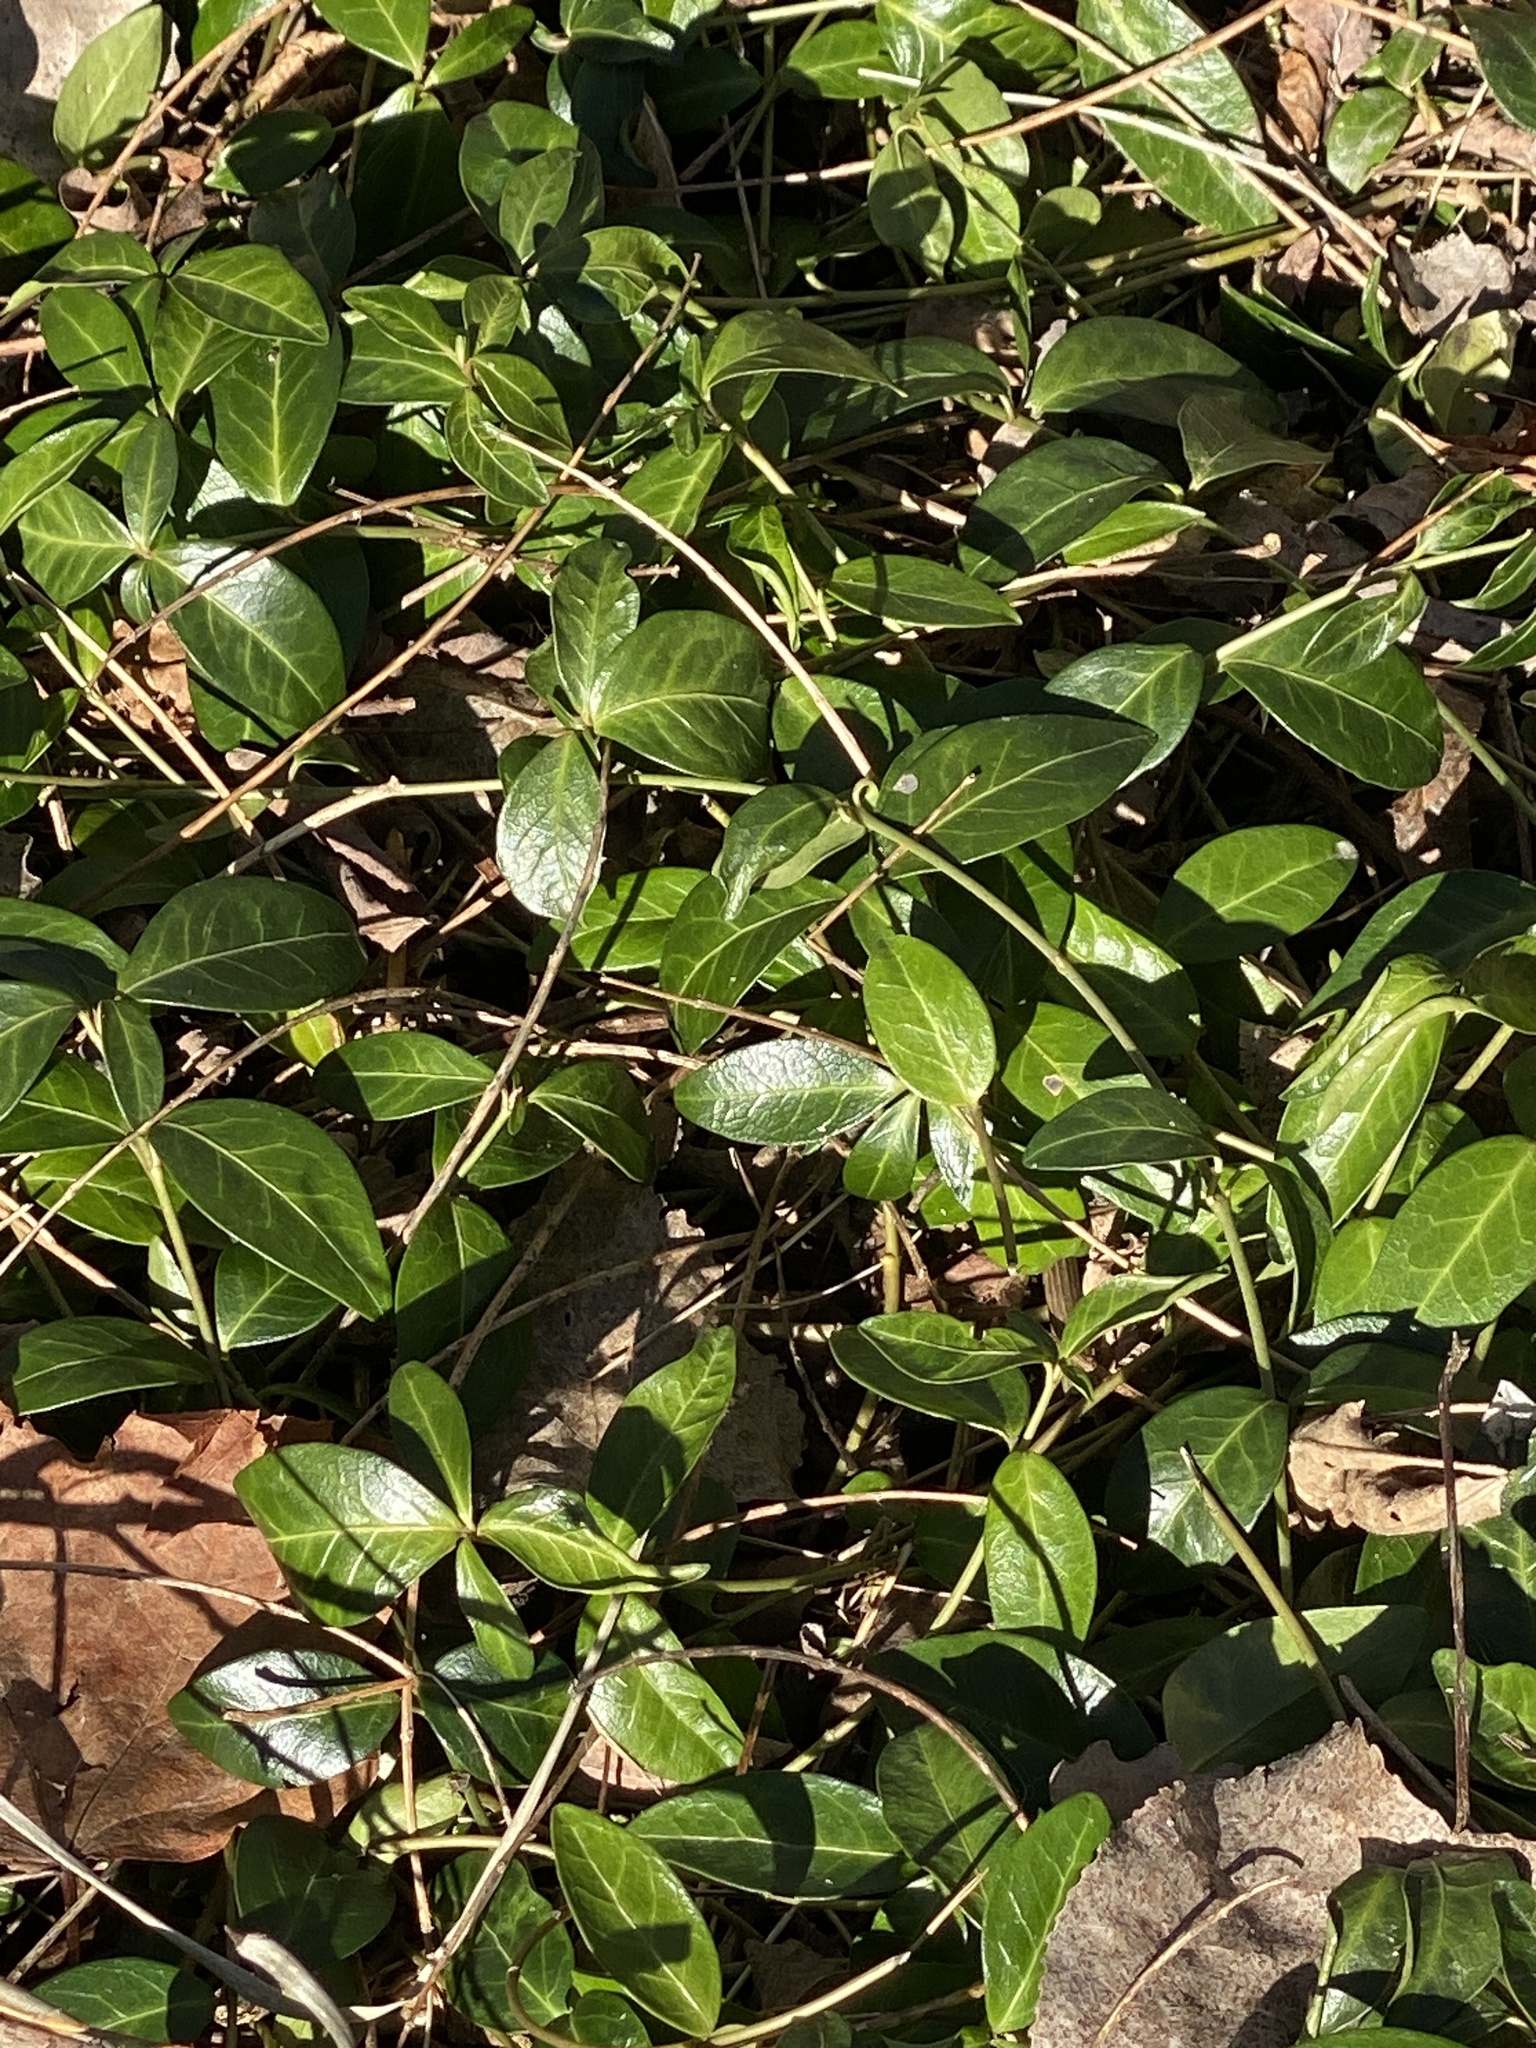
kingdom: Plantae
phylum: Tracheophyta
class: Magnoliopsida
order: Gentianales
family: Apocynaceae
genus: Vinca
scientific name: Vinca minor
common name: Lesser periwinkle
